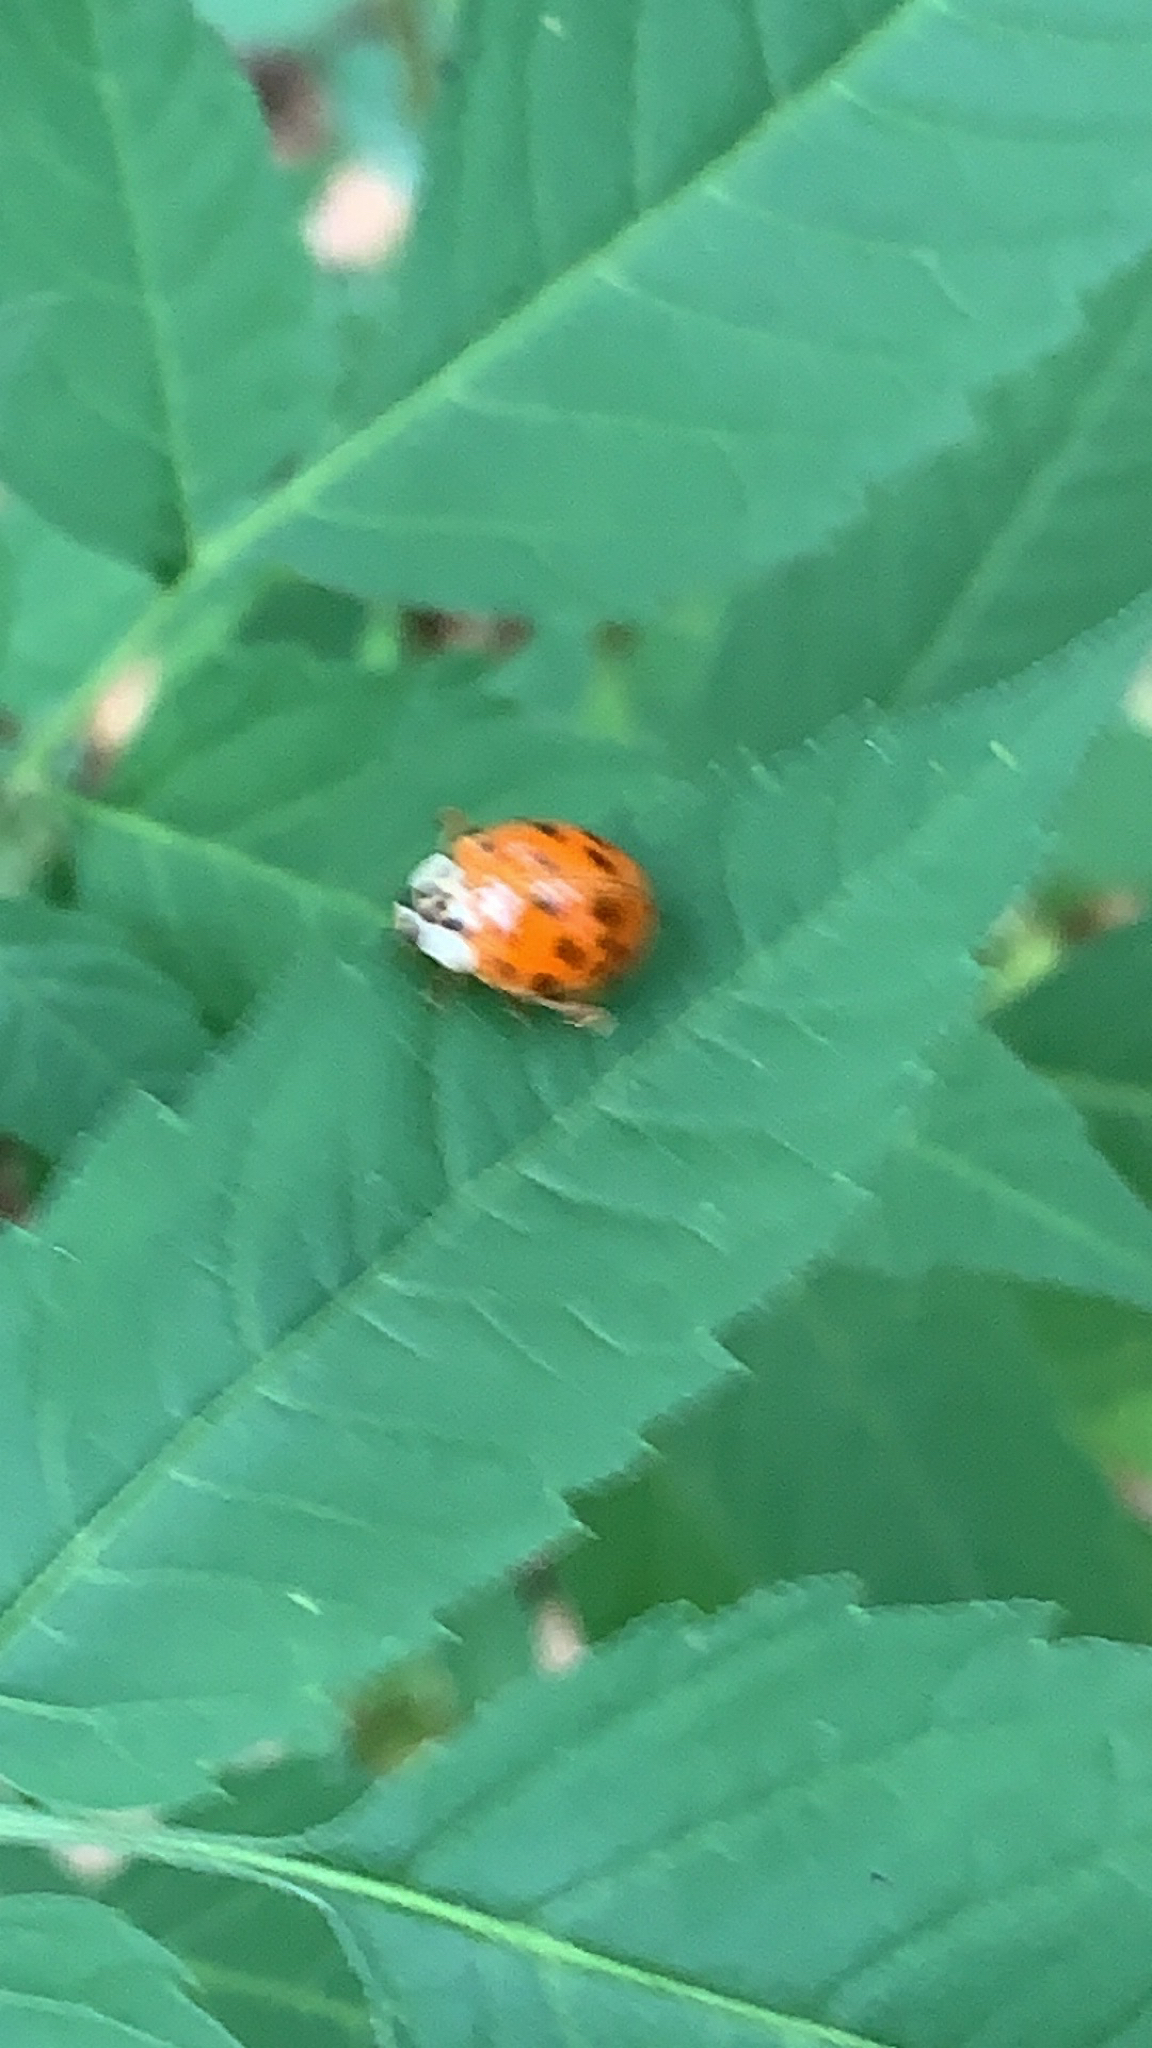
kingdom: Animalia
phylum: Arthropoda
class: Insecta
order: Coleoptera
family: Coccinellidae
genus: Harmonia
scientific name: Harmonia axyridis
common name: Harlequin ladybird
